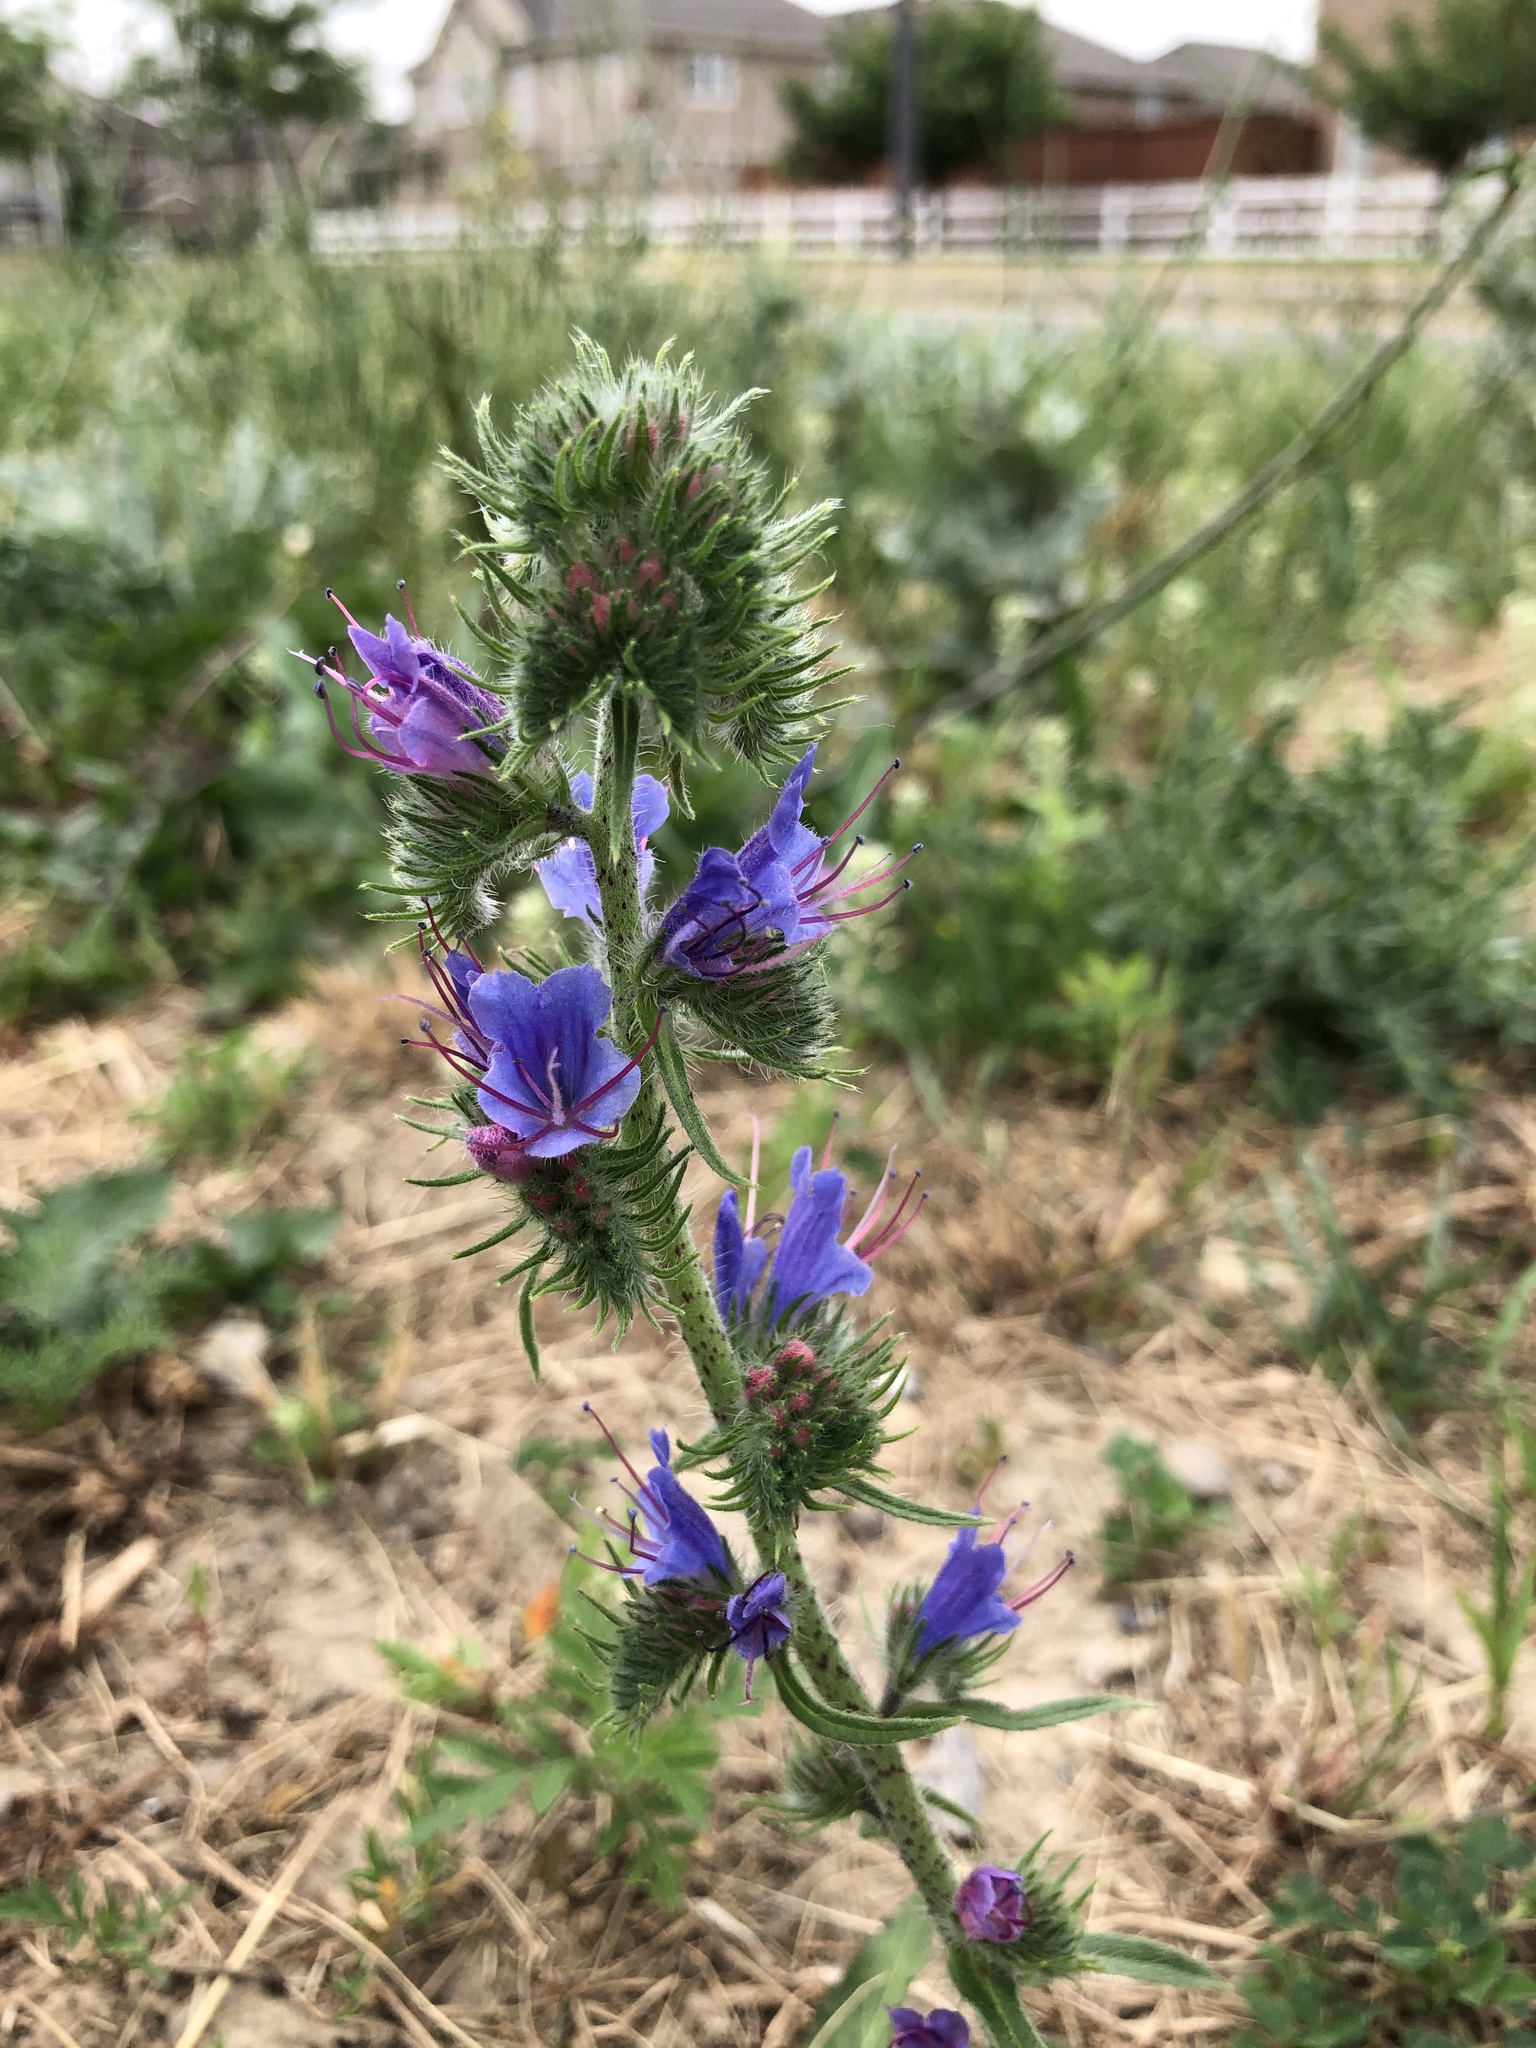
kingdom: Plantae
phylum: Tracheophyta
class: Magnoliopsida
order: Boraginales
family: Boraginaceae
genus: Echium
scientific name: Echium vulgare
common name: Common viper's bugloss
